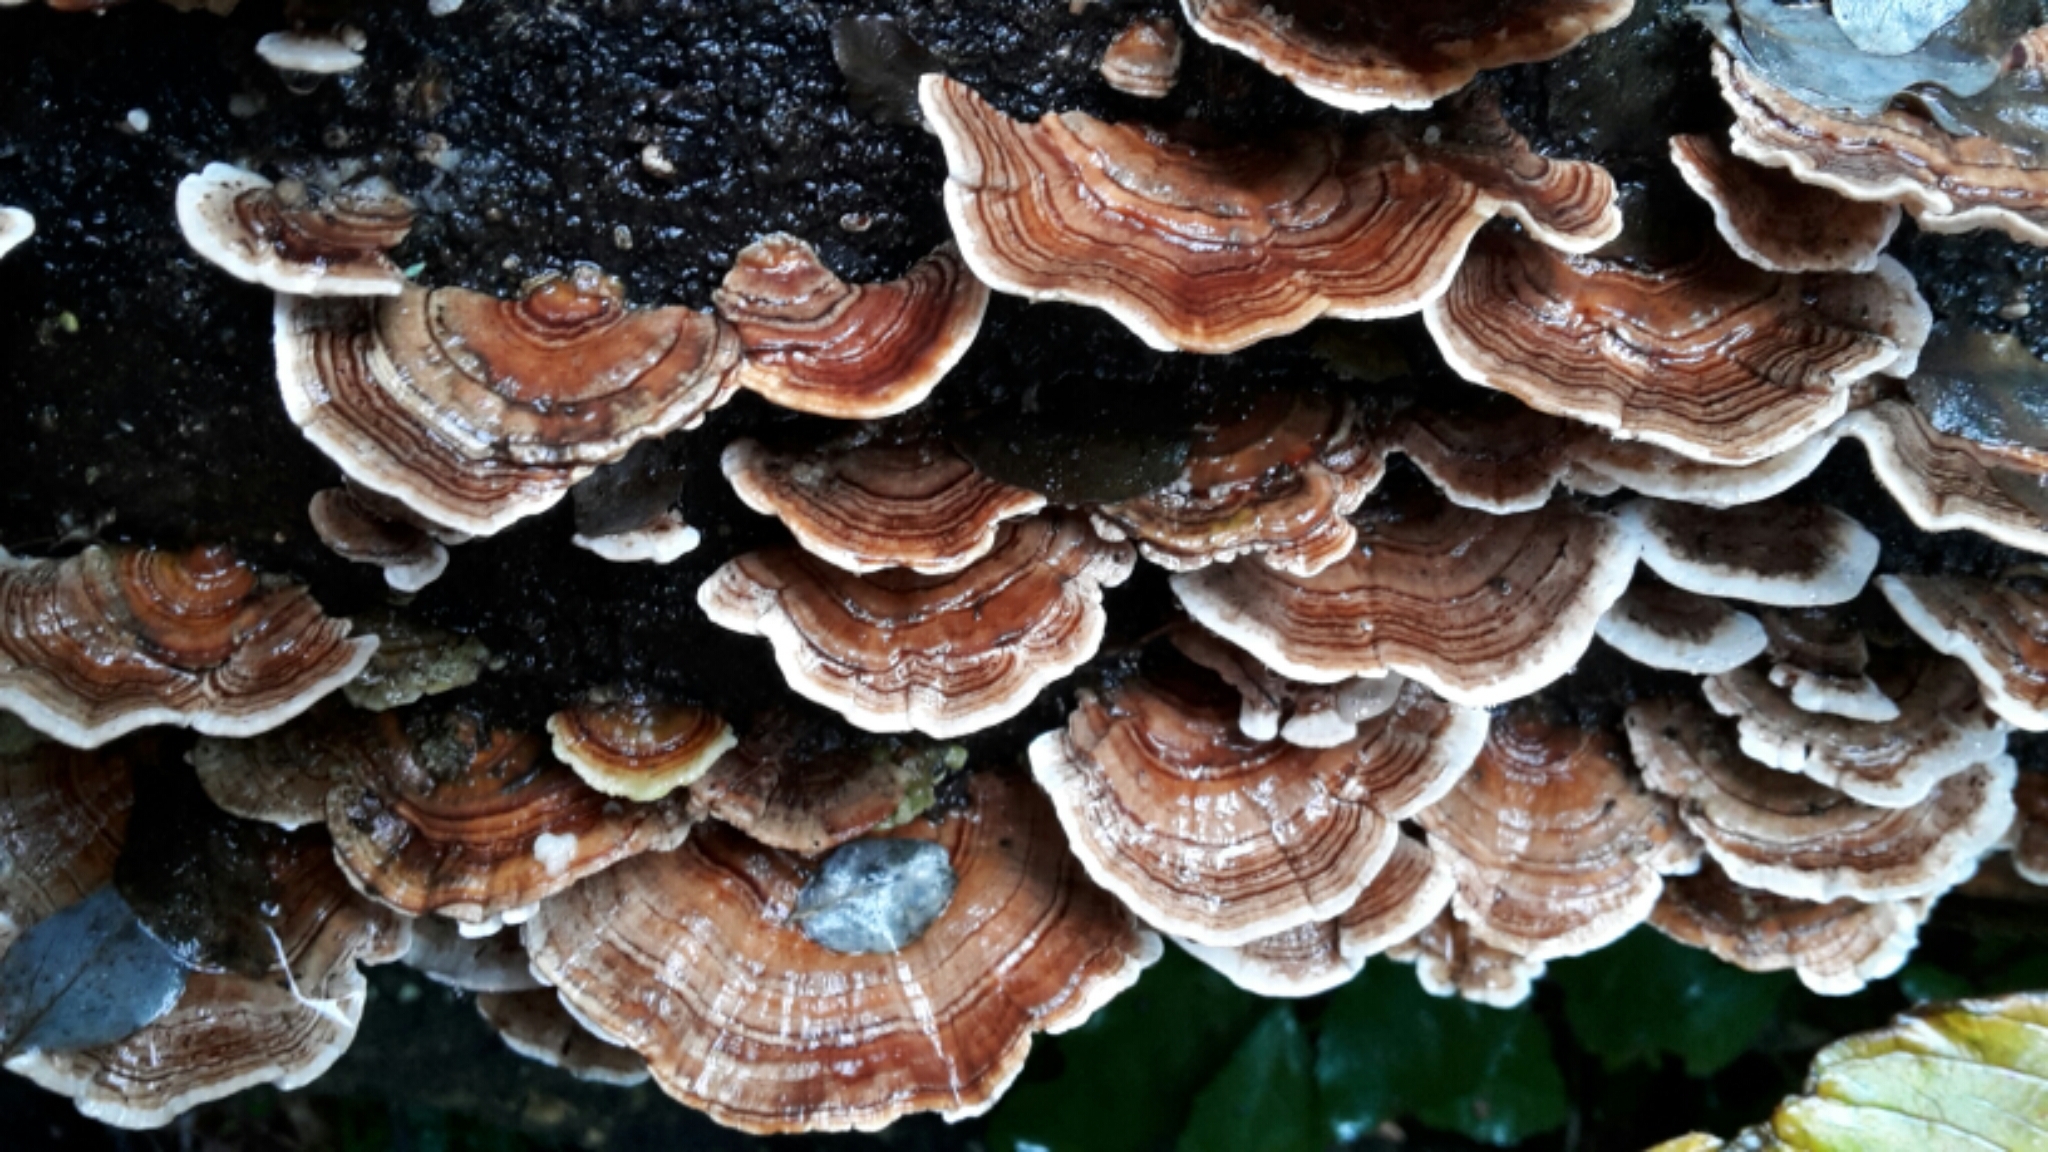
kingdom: Fungi
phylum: Basidiomycota
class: Agaricomycetes
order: Polyporales
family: Polyporaceae
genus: Trametes
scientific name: Trametes versicolor
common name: Turkeytail
